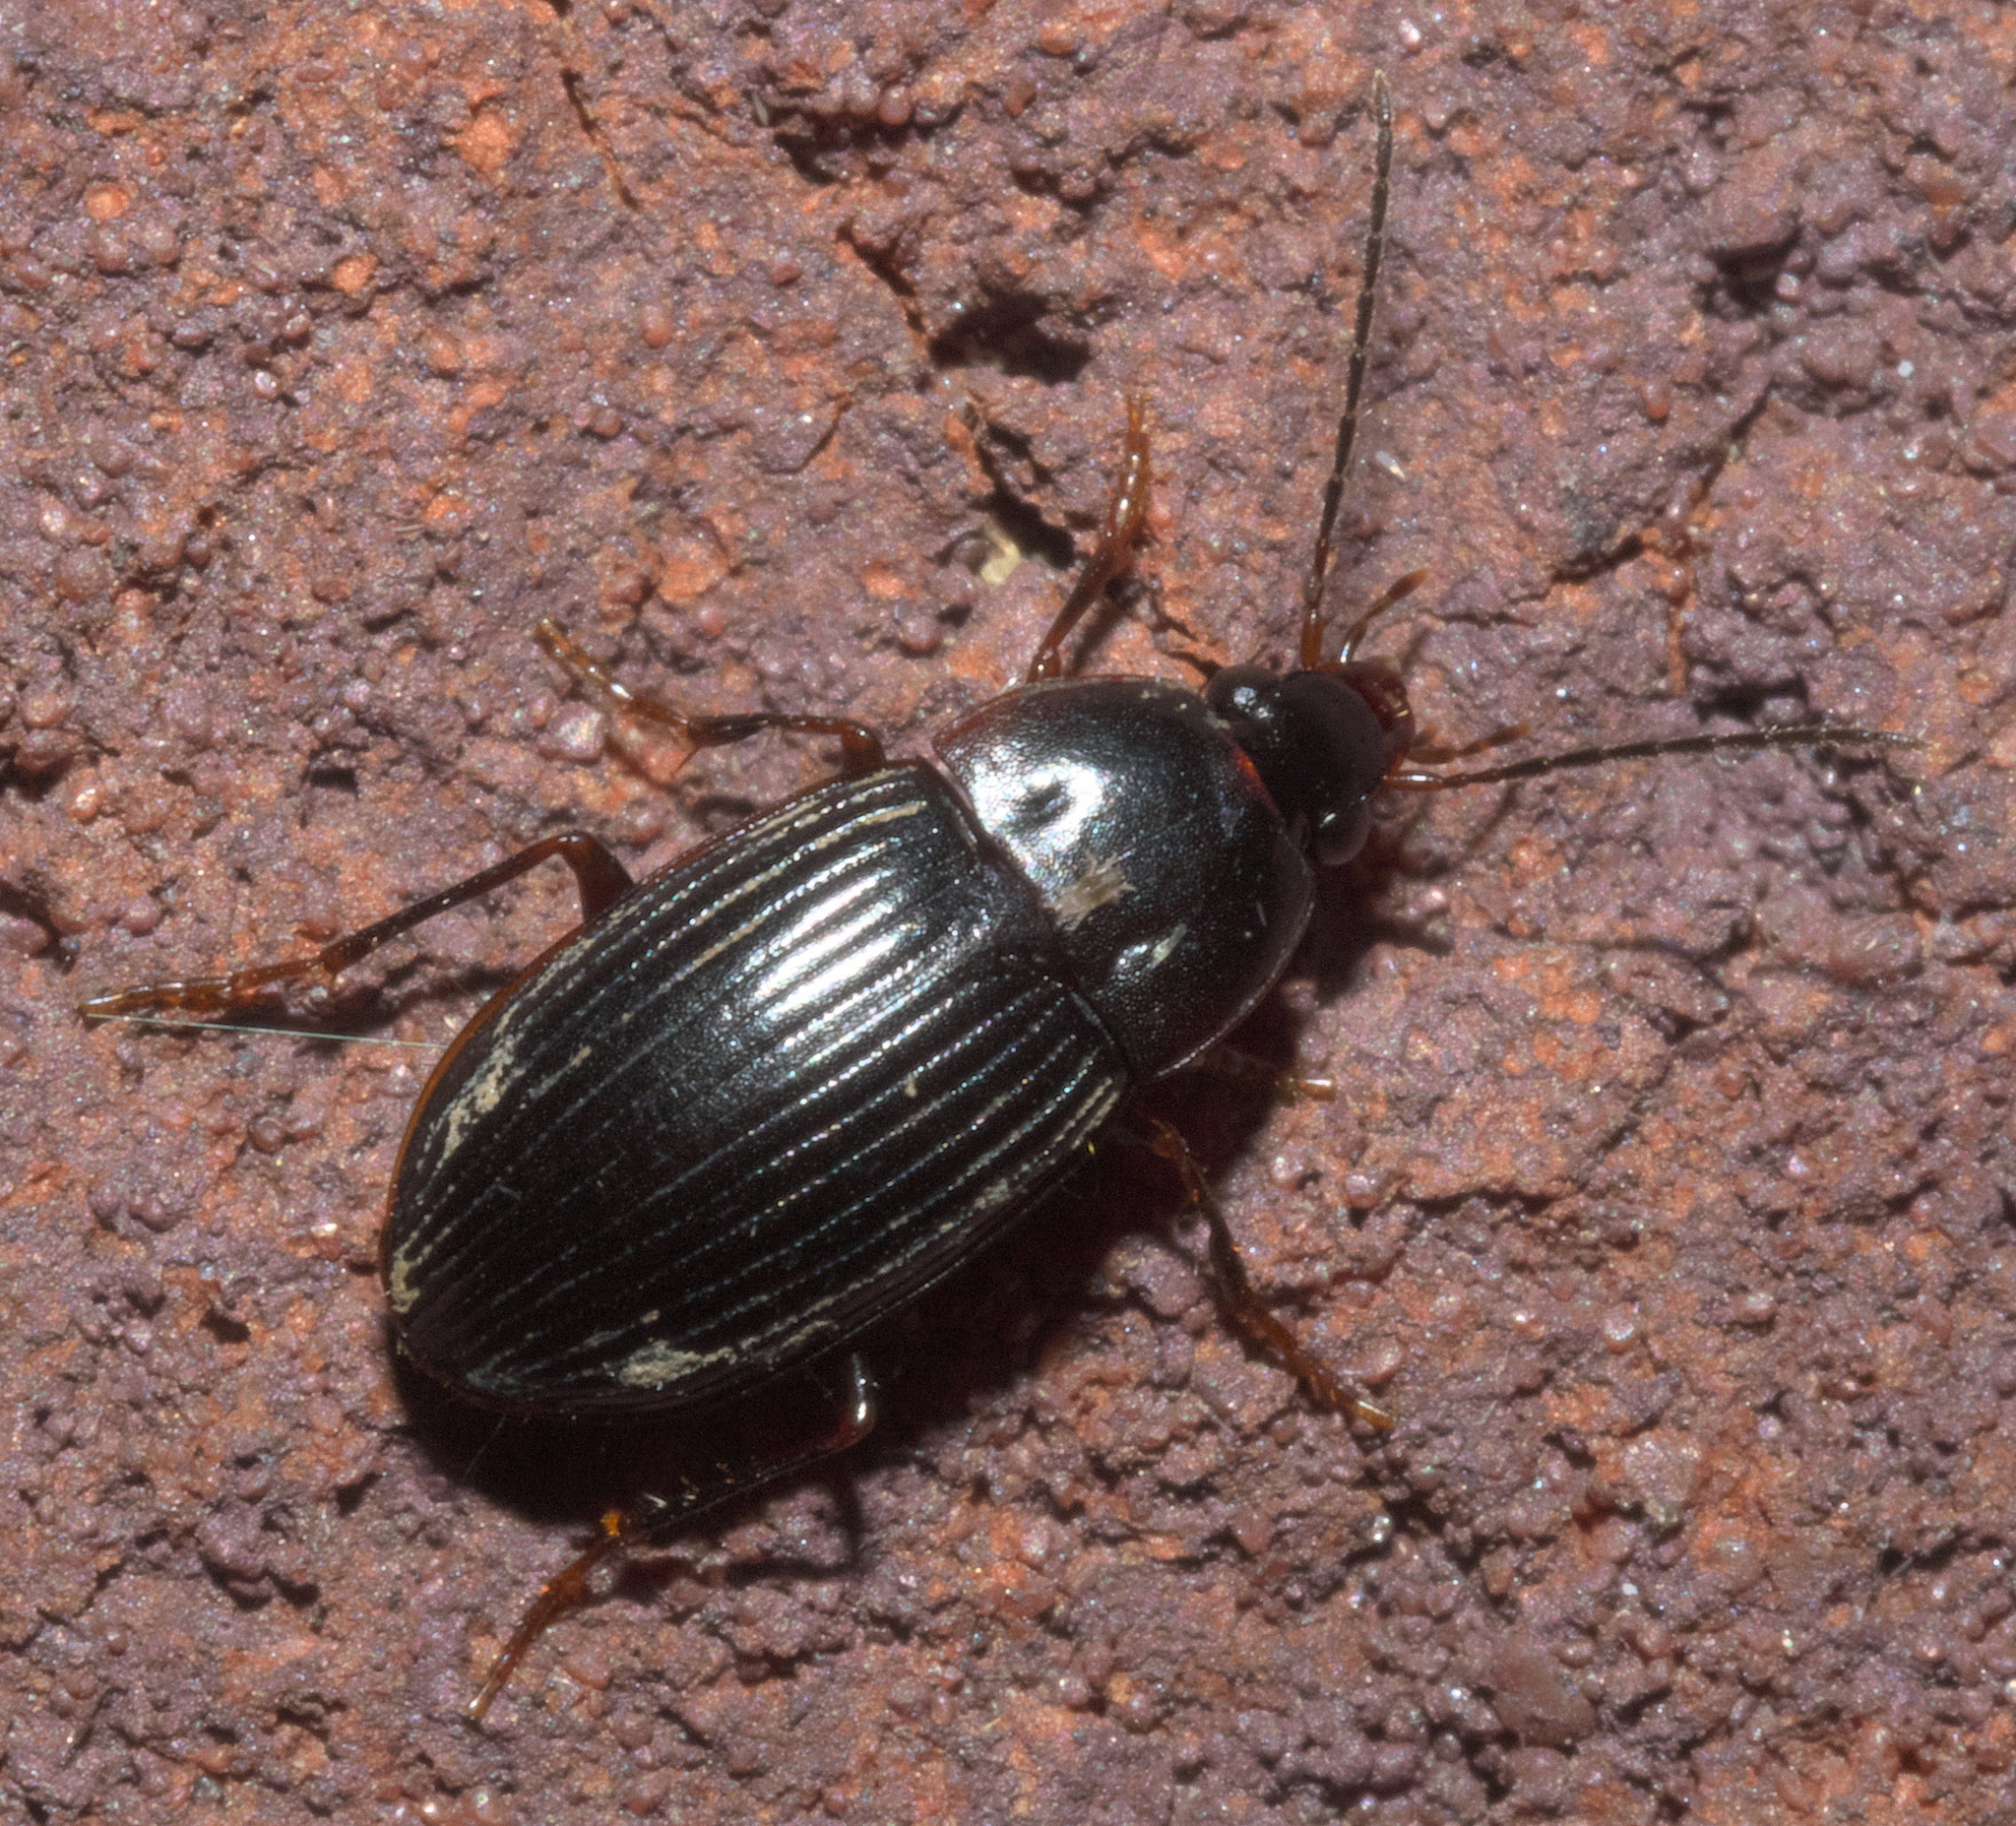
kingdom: Animalia
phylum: Arthropoda
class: Insecta
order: Coleoptera
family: Carabidae
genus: Anatrichis
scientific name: Anatrichis minuta
